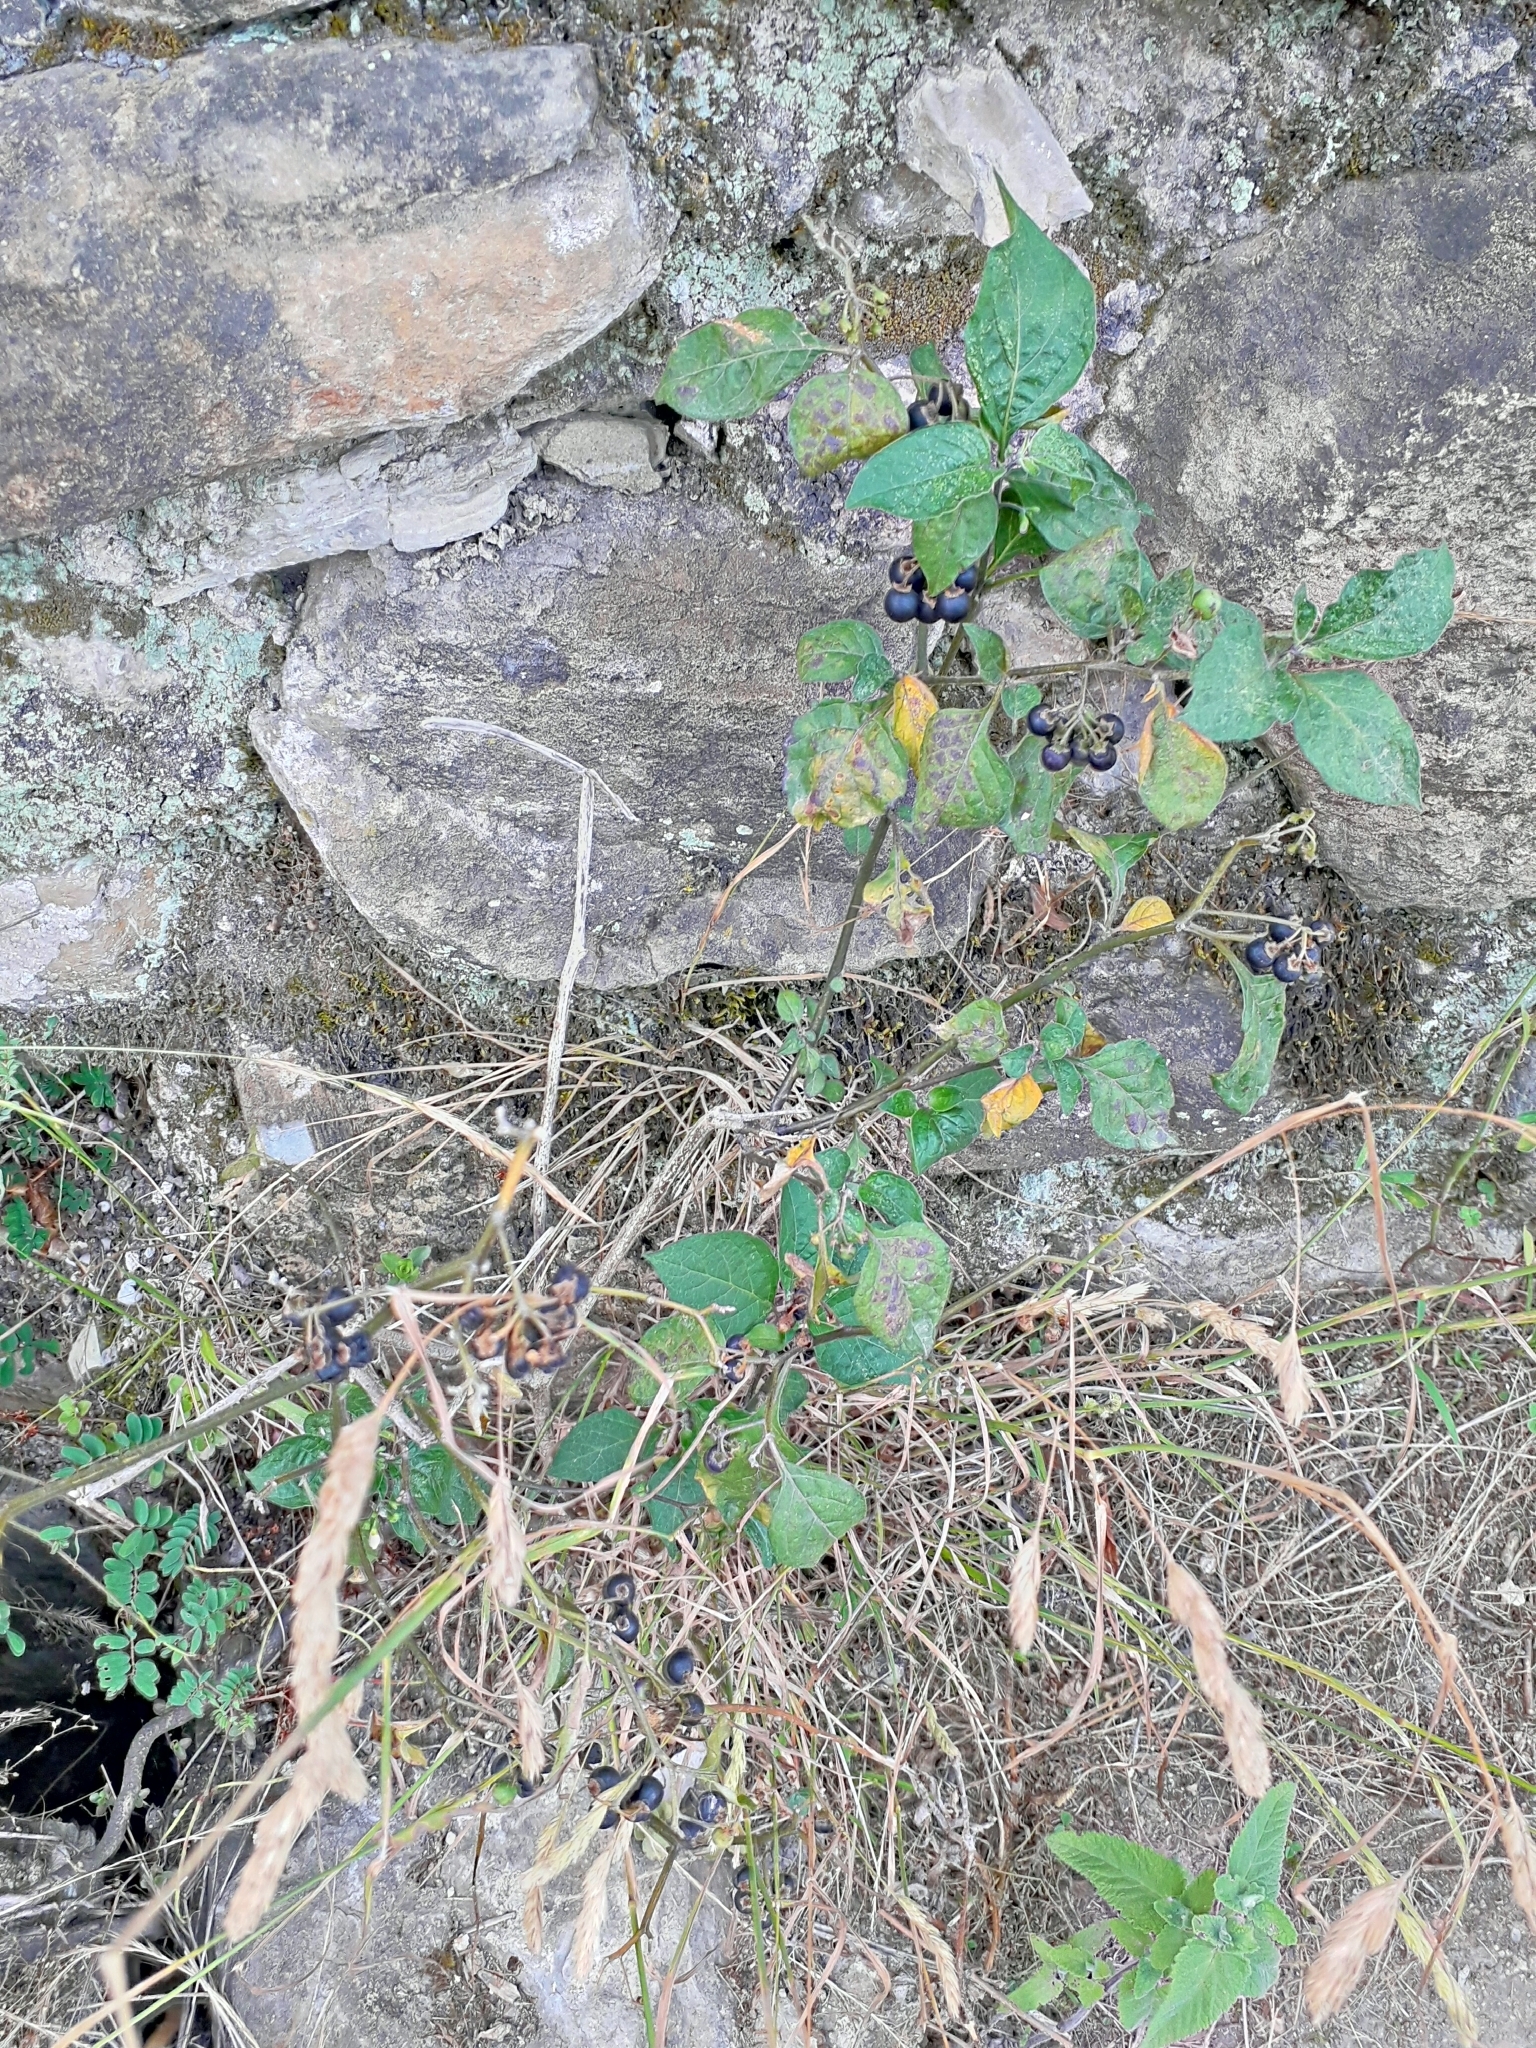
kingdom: Plantae
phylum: Tracheophyta
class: Magnoliopsida
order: Solanales
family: Solanaceae
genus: Solanum
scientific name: Solanum nigrum
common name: Black nightshade
